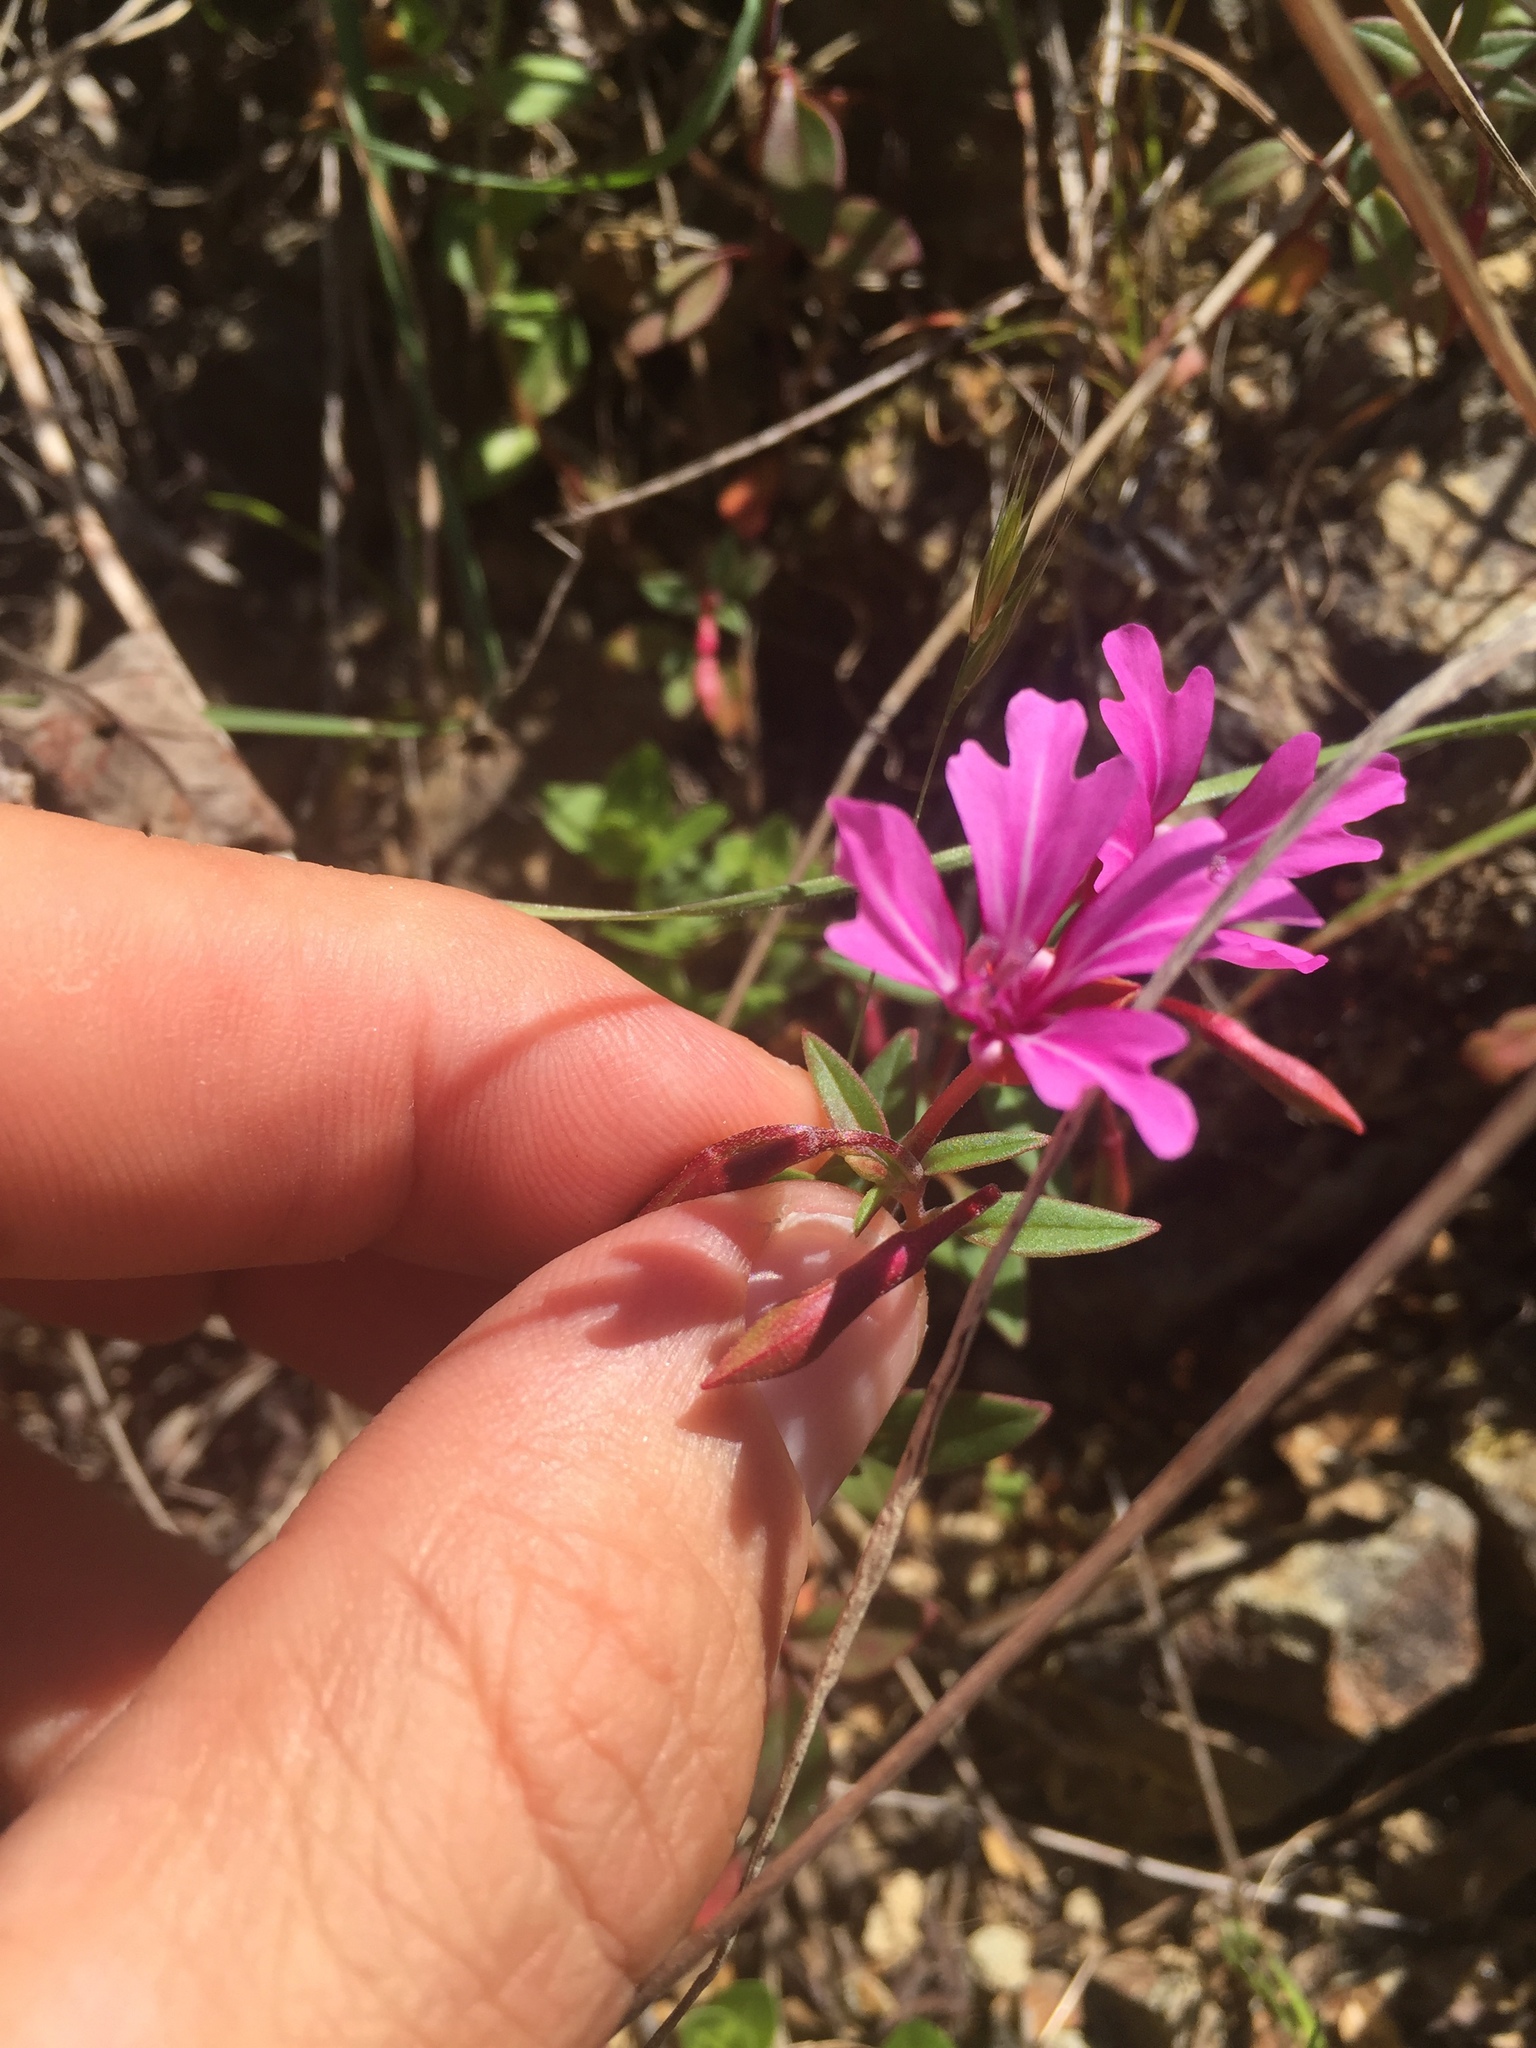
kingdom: Plantae
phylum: Tracheophyta
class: Magnoliopsida
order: Myrtales
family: Onagraceae
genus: Clarkia
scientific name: Clarkia concinna
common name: Red-ribbons
